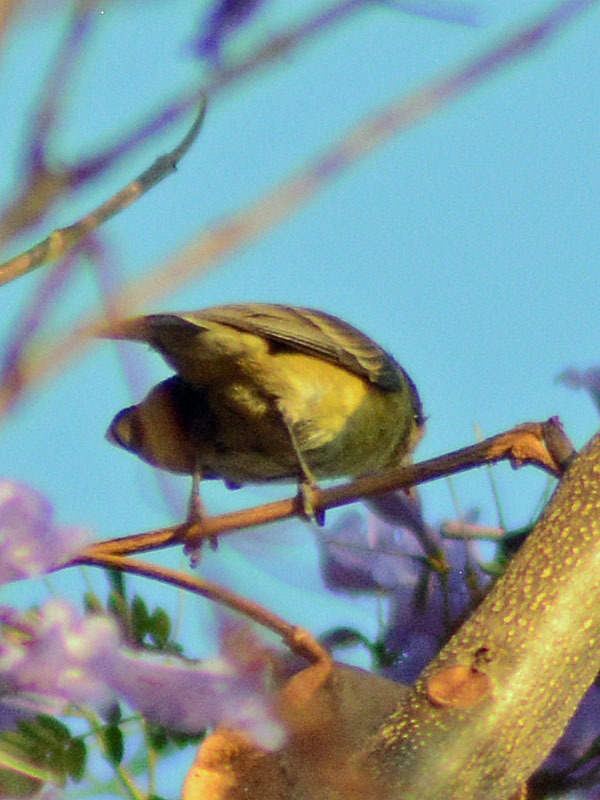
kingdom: Animalia
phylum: Chordata
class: Aves
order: Passeriformes
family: Parulidae
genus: Leiothlypis
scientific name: Leiothlypis celata
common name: Orange-crowned warbler
